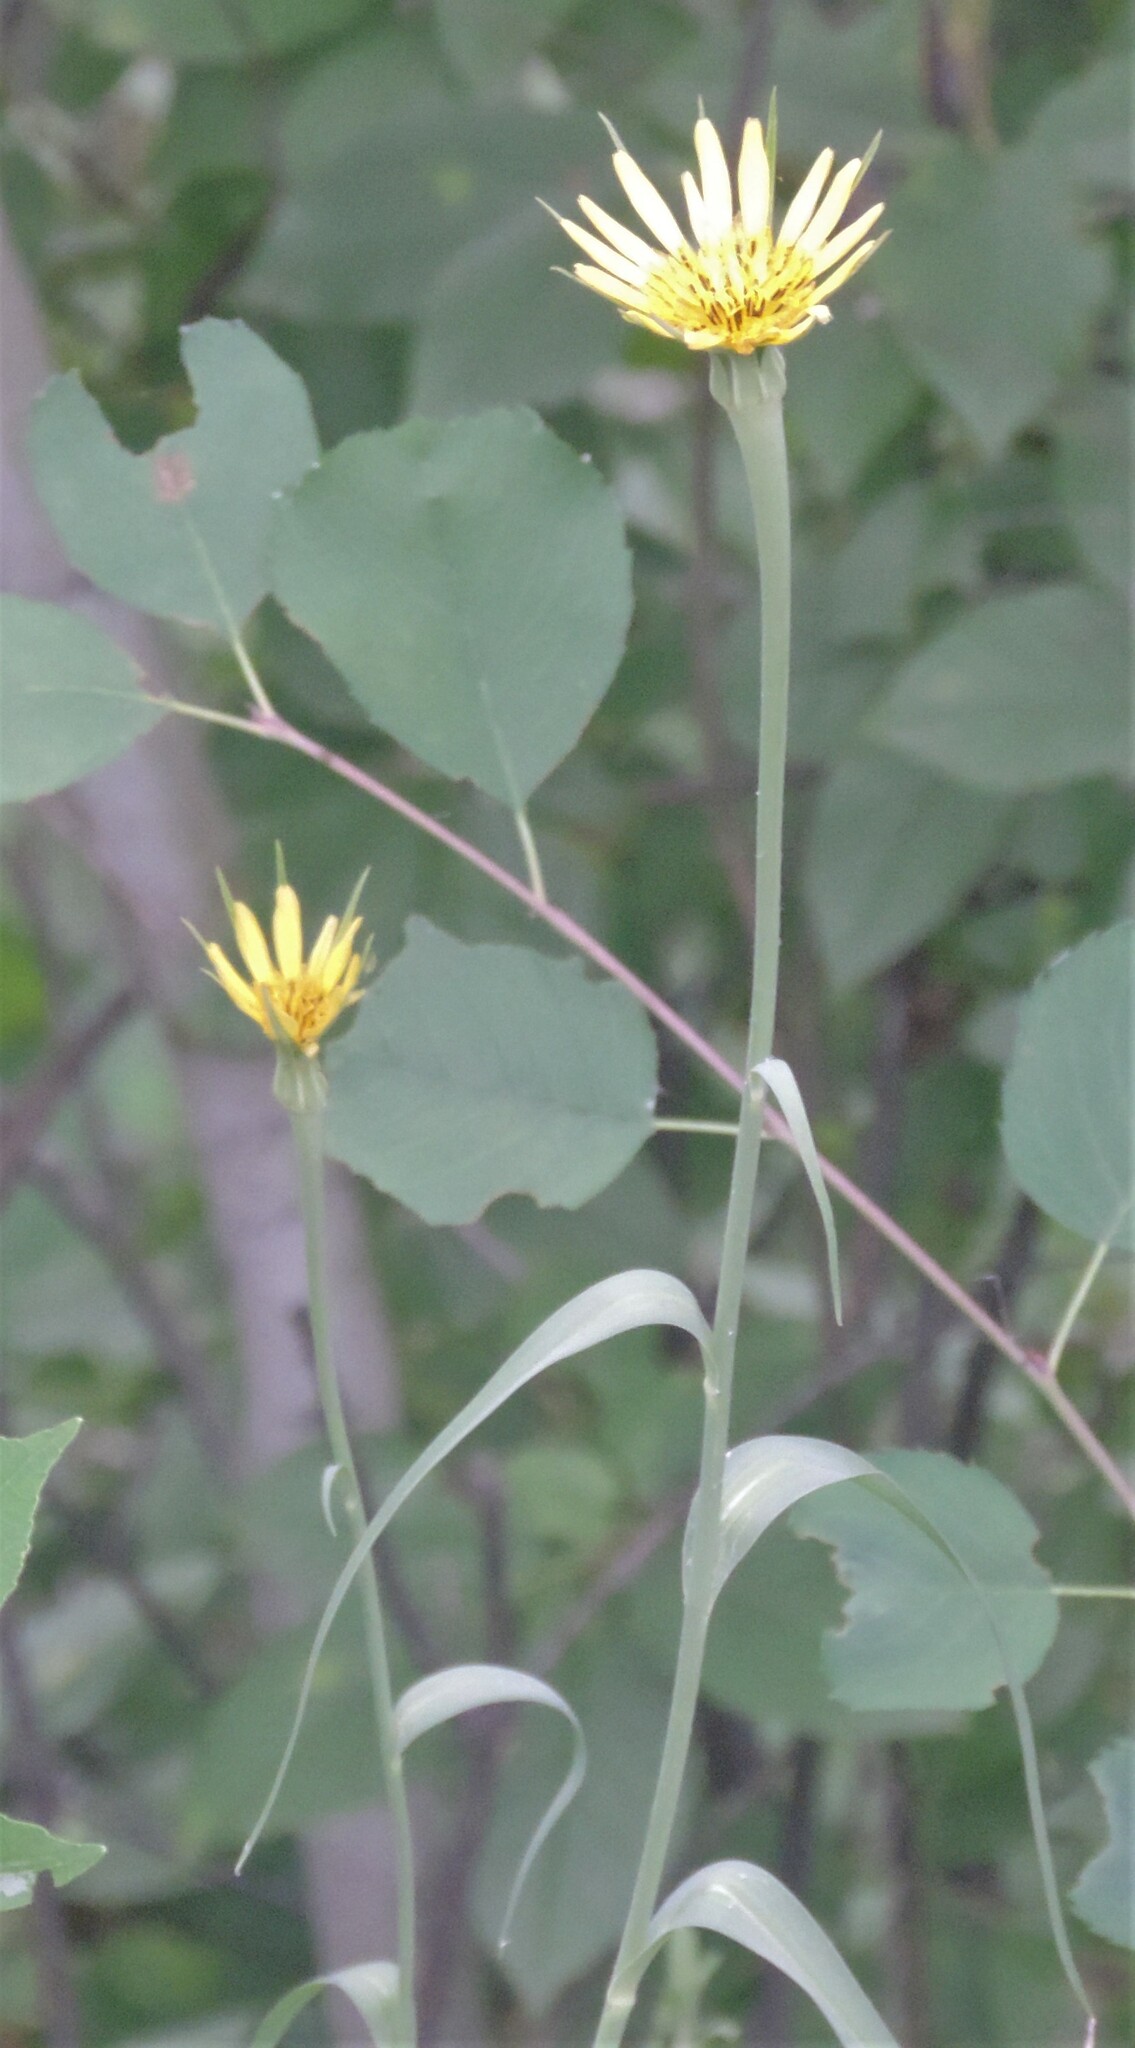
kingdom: Plantae
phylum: Tracheophyta
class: Magnoliopsida
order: Asterales
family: Asteraceae
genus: Tragopogon
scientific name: Tragopogon dubius
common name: Yellow salsify
